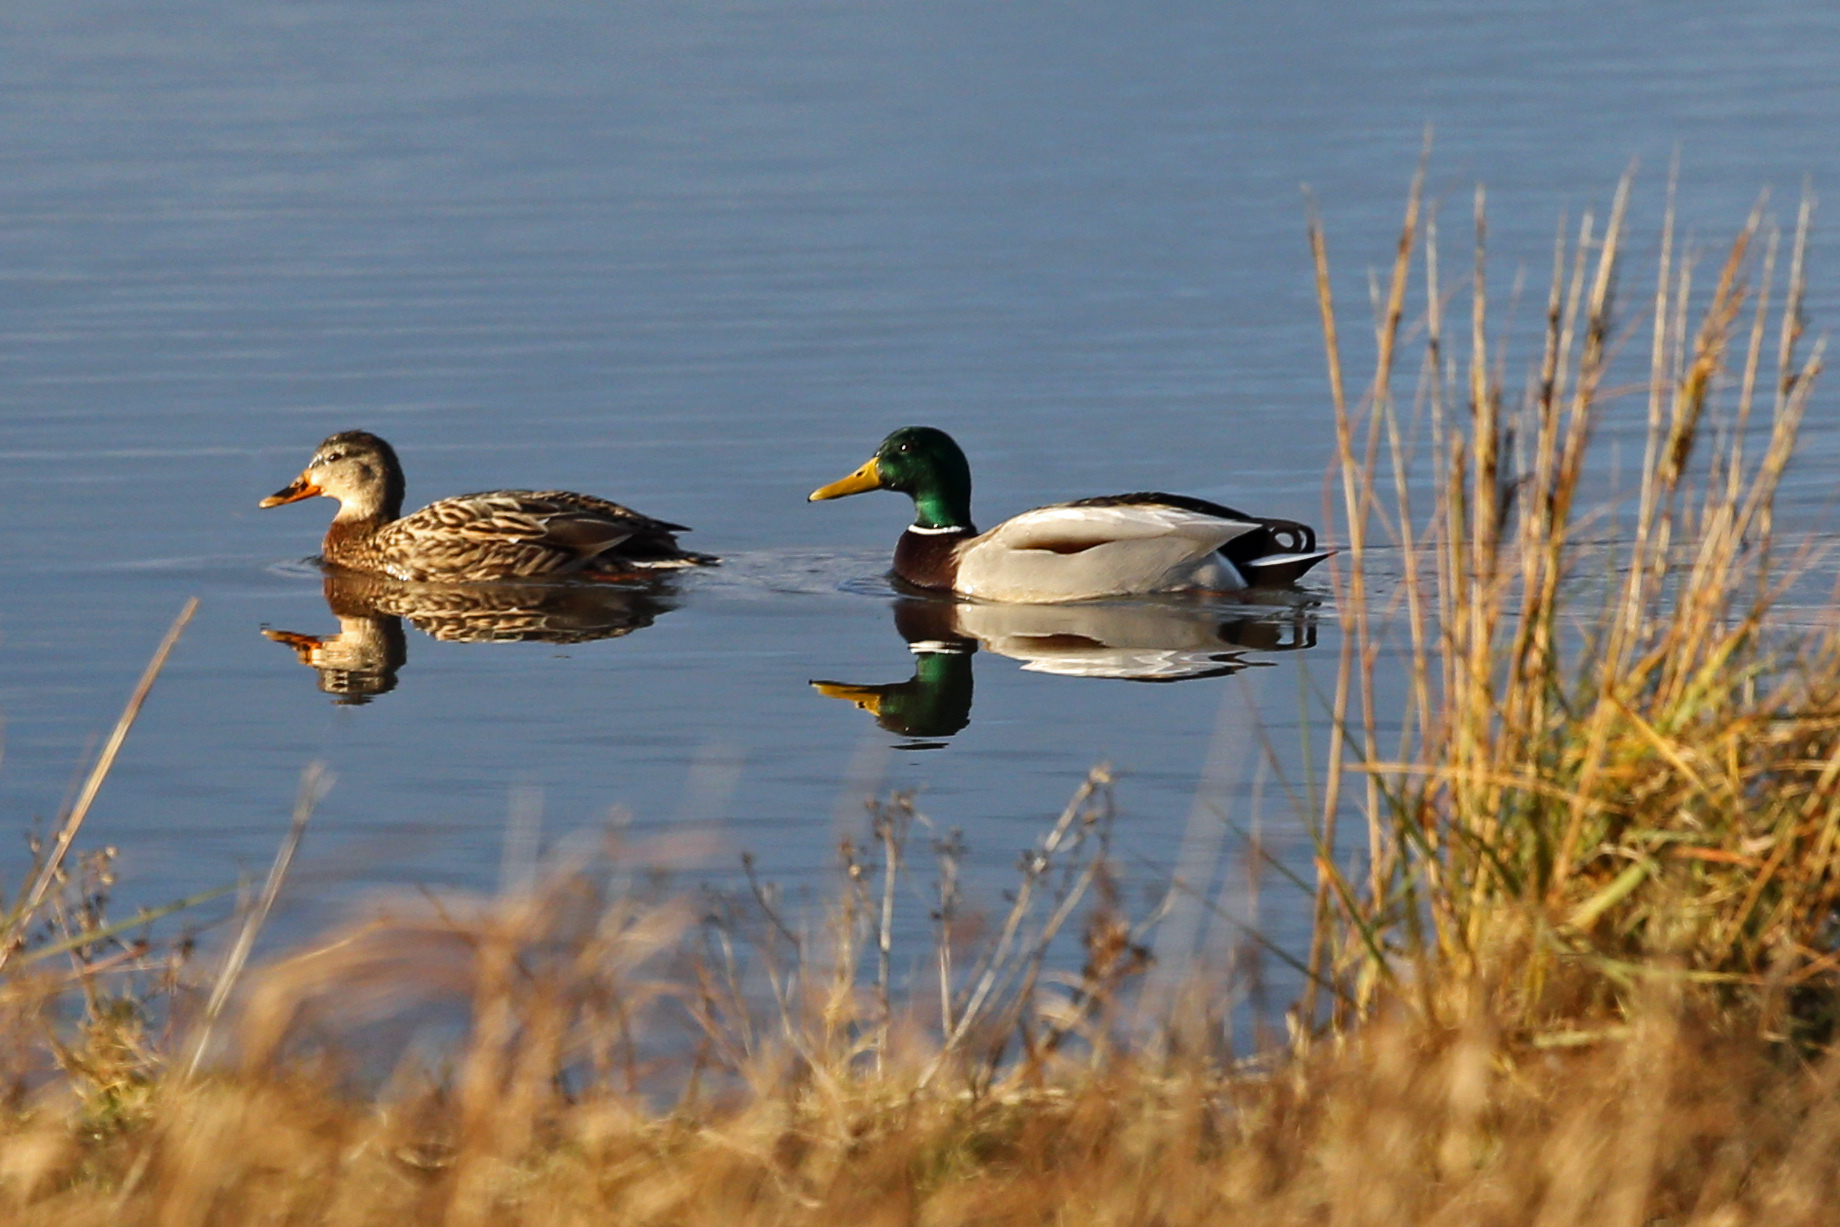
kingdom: Animalia
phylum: Chordata
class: Aves
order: Anseriformes
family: Anatidae
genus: Anas
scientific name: Anas platyrhynchos
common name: Mallard
